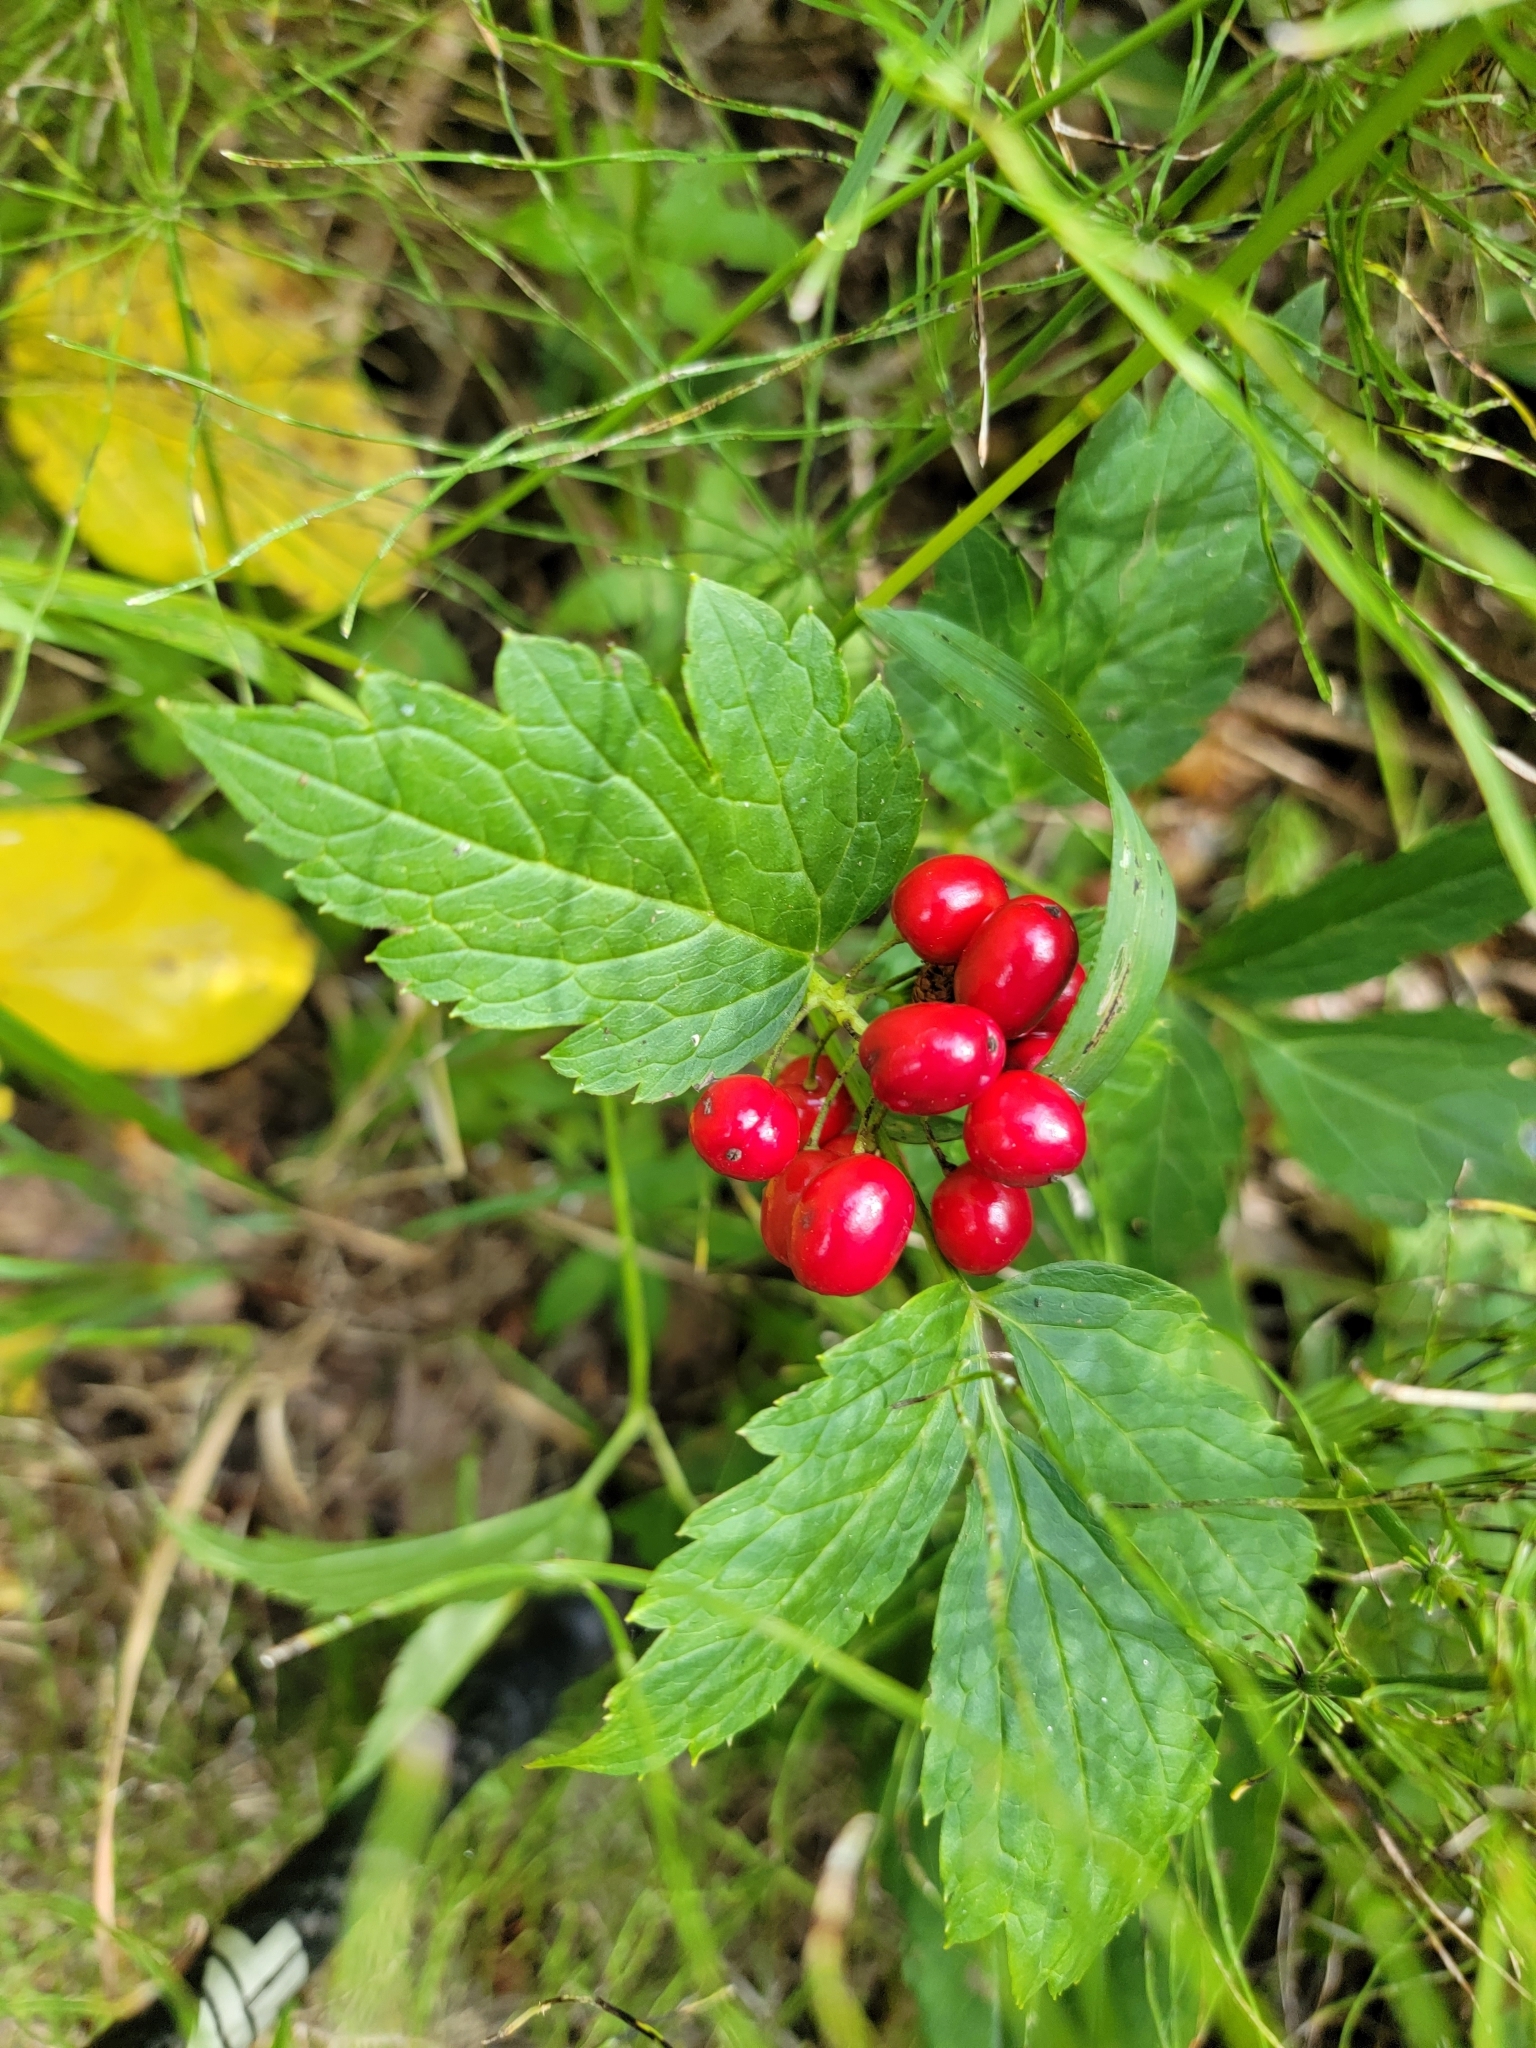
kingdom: Plantae
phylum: Tracheophyta
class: Magnoliopsida
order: Ranunculales
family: Ranunculaceae
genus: Actaea
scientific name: Actaea rubra
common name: Red baneberry
